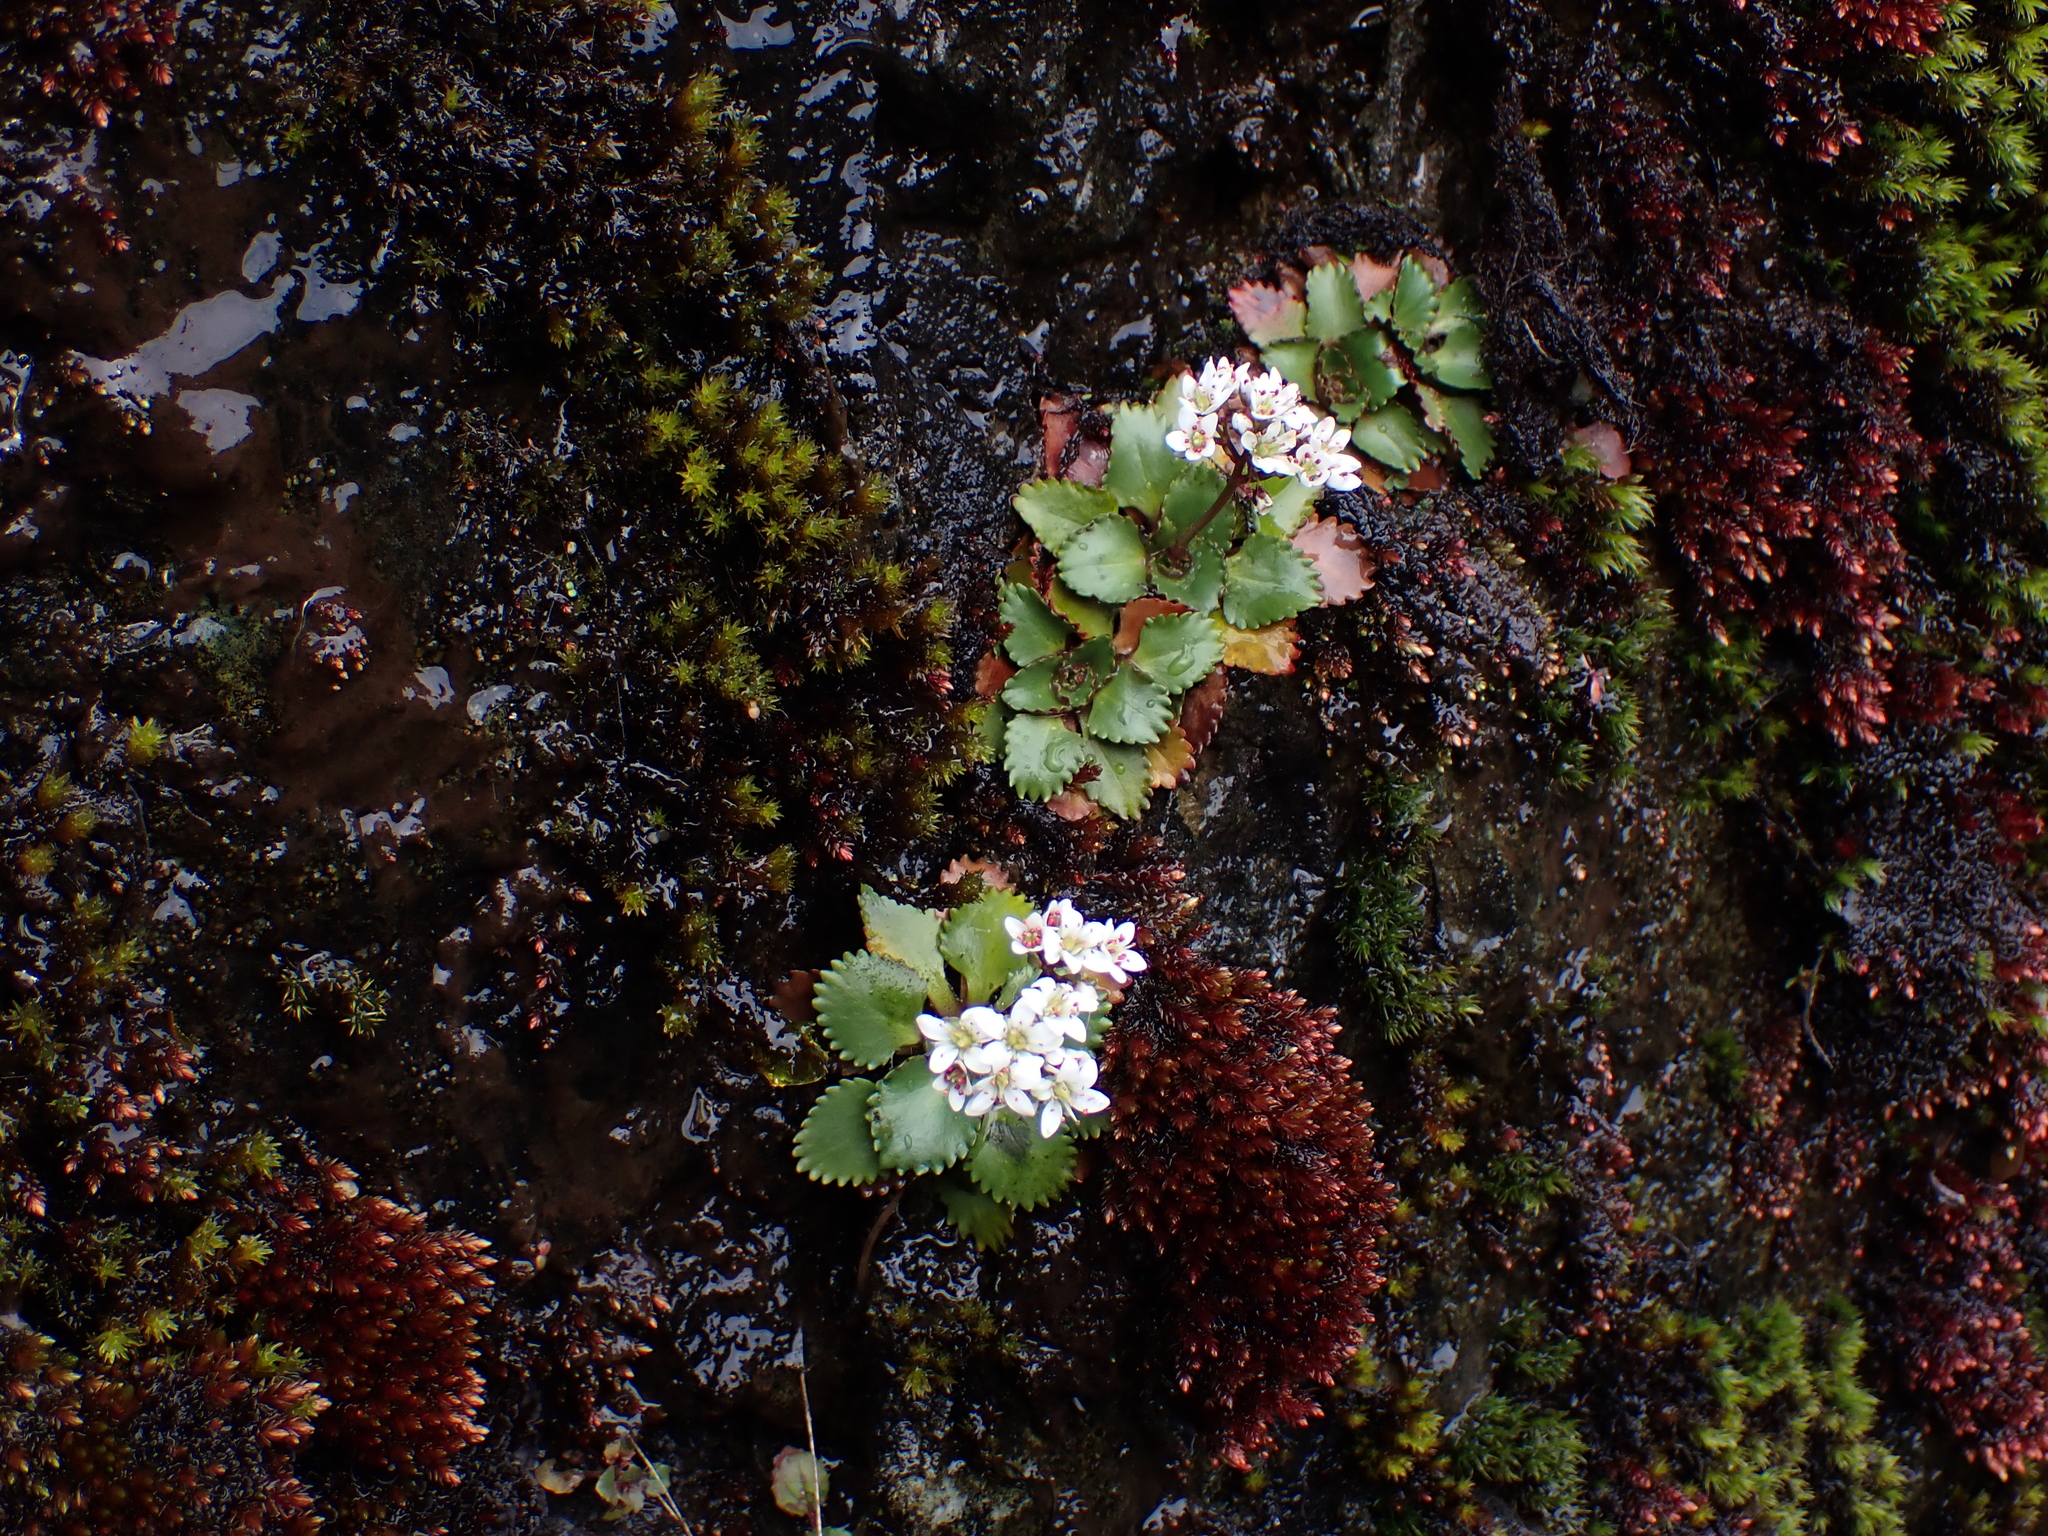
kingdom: Plantae
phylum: Tracheophyta
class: Magnoliopsida
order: Saxifragales
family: Saxifragaceae
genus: Micranthes
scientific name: Micranthes rufidula
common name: Rustyhair saxifrage
